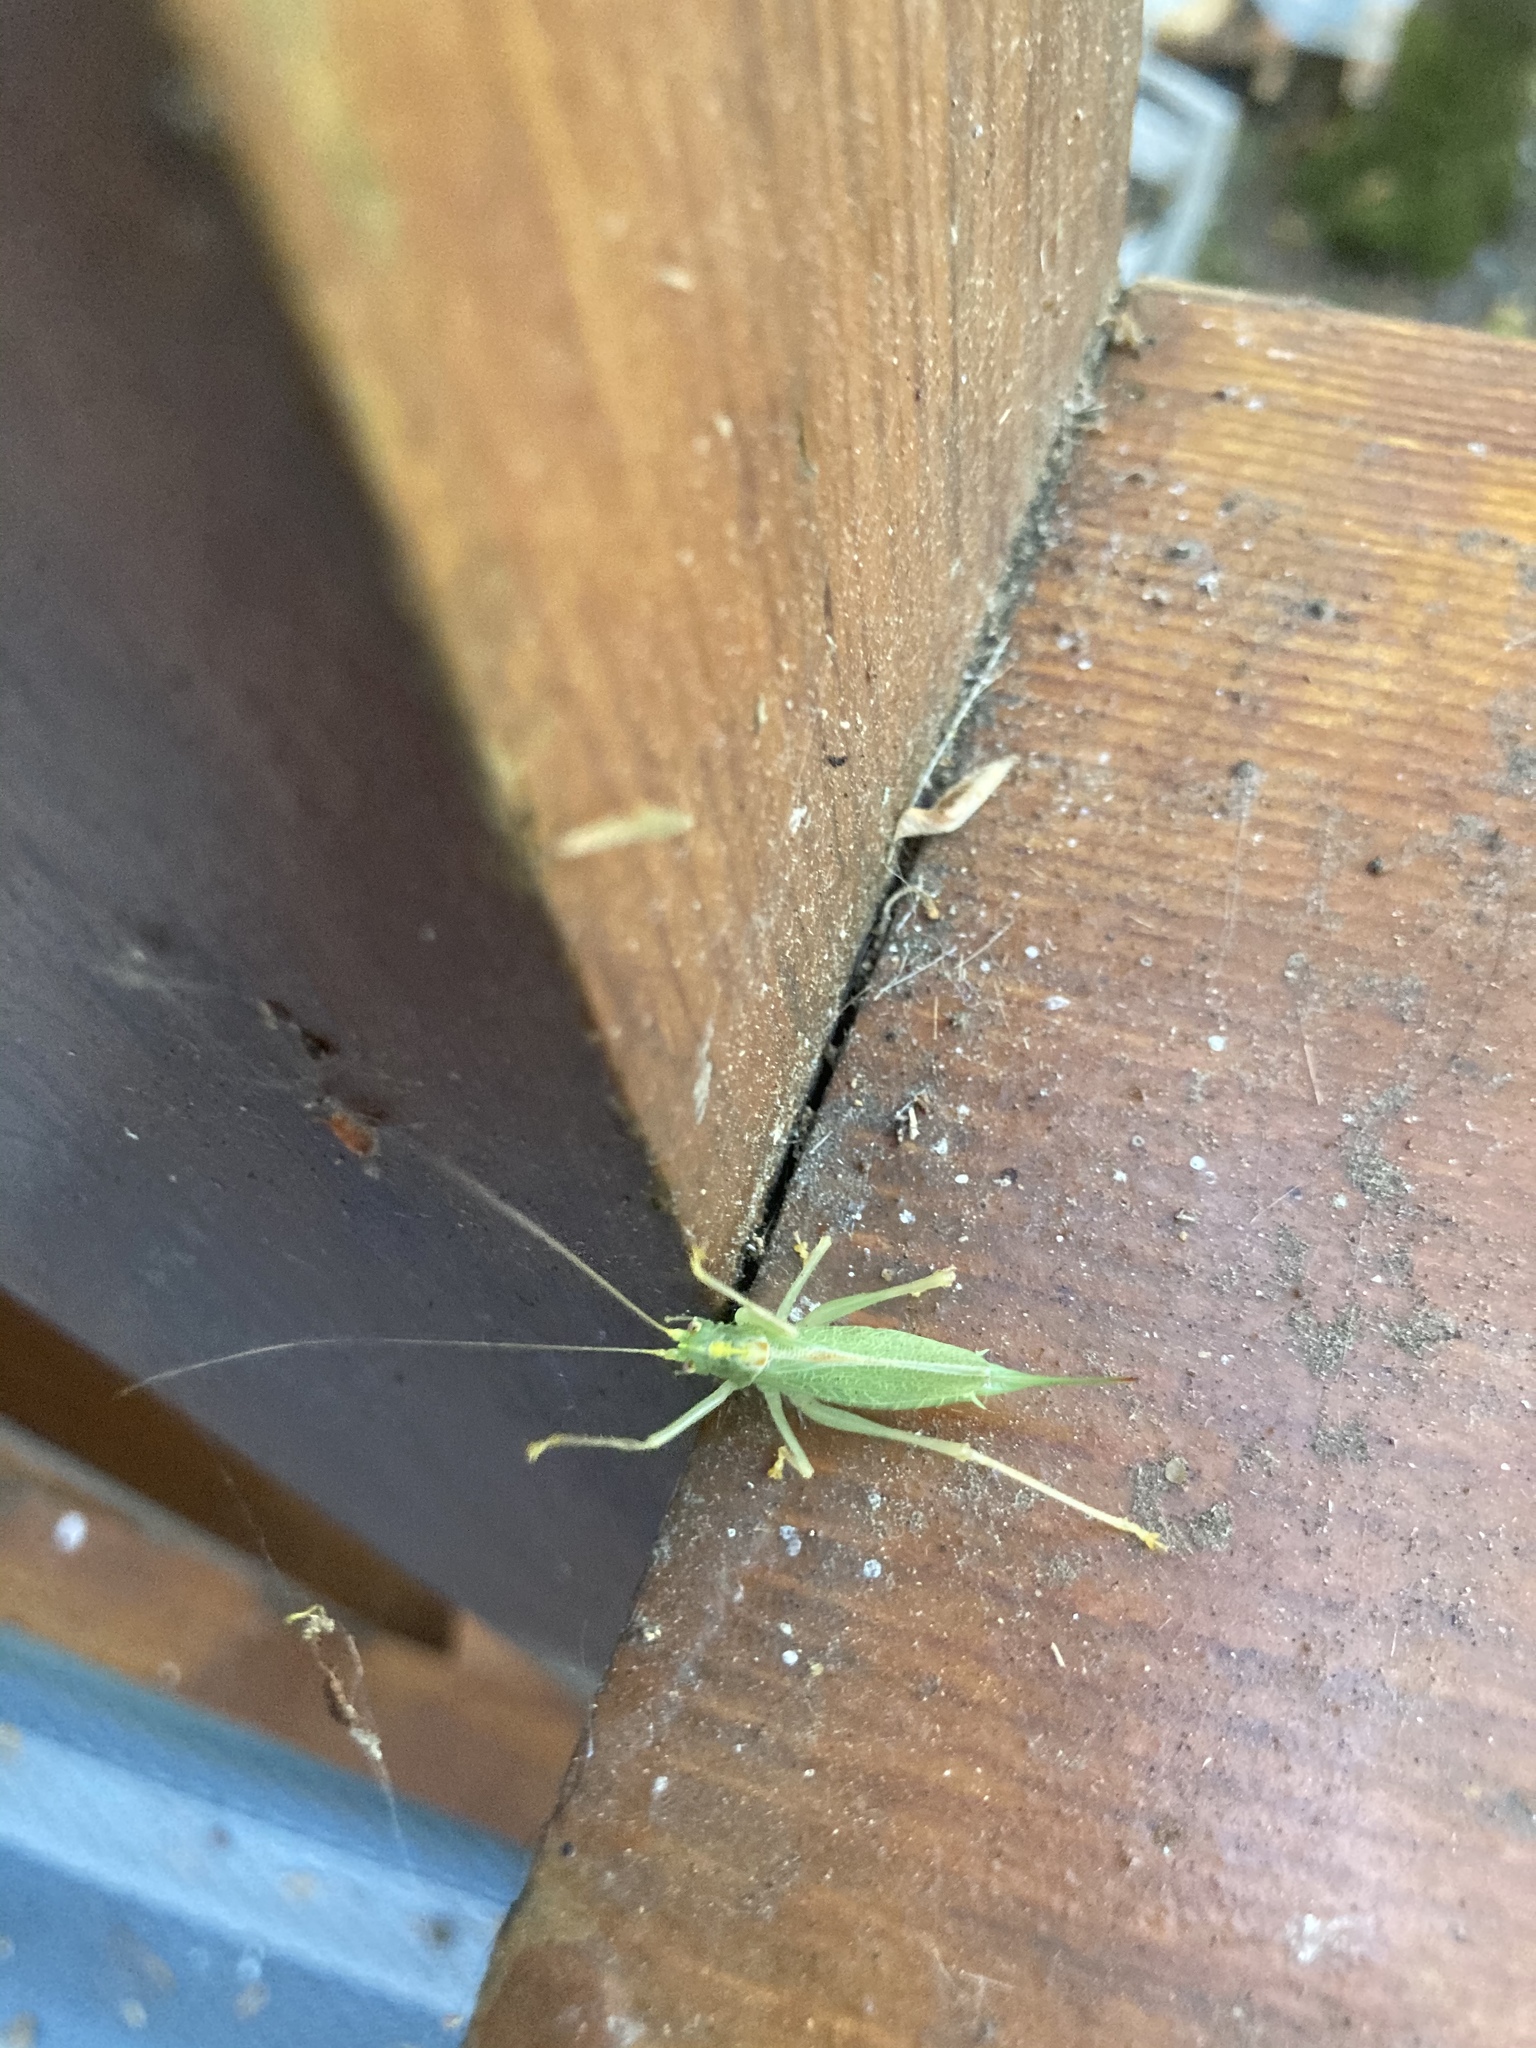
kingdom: Animalia
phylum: Arthropoda
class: Insecta
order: Orthoptera
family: Tettigoniidae
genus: Meconema
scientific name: Meconema thalassinum
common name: Oak bush-cricket
